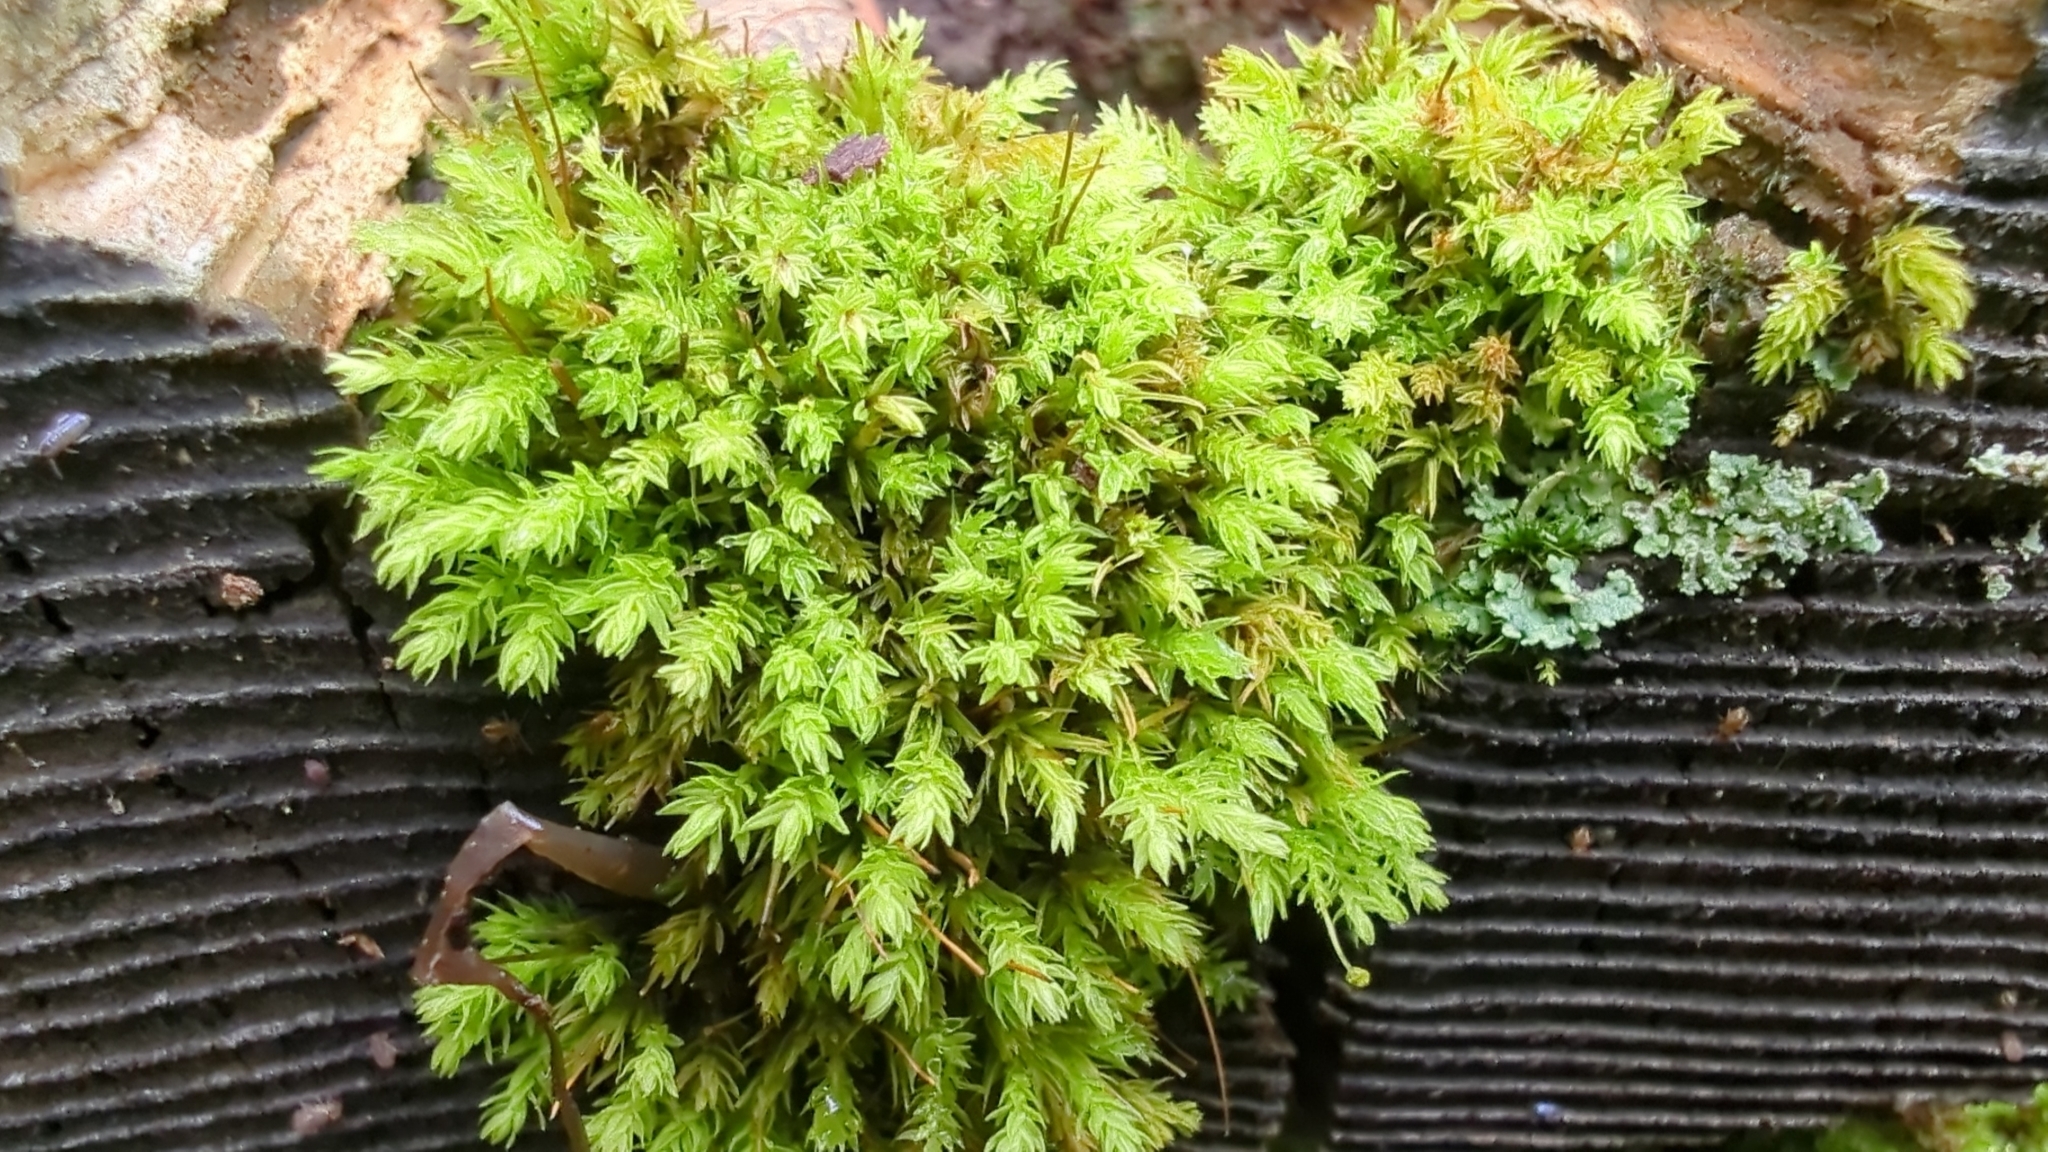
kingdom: Plantae
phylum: Bryophyta
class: Bryopsida
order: Aulacomniales
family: Aulacomniaceae
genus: Aulacomnium
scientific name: Aulacomnium androgynum
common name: Little groove moss
